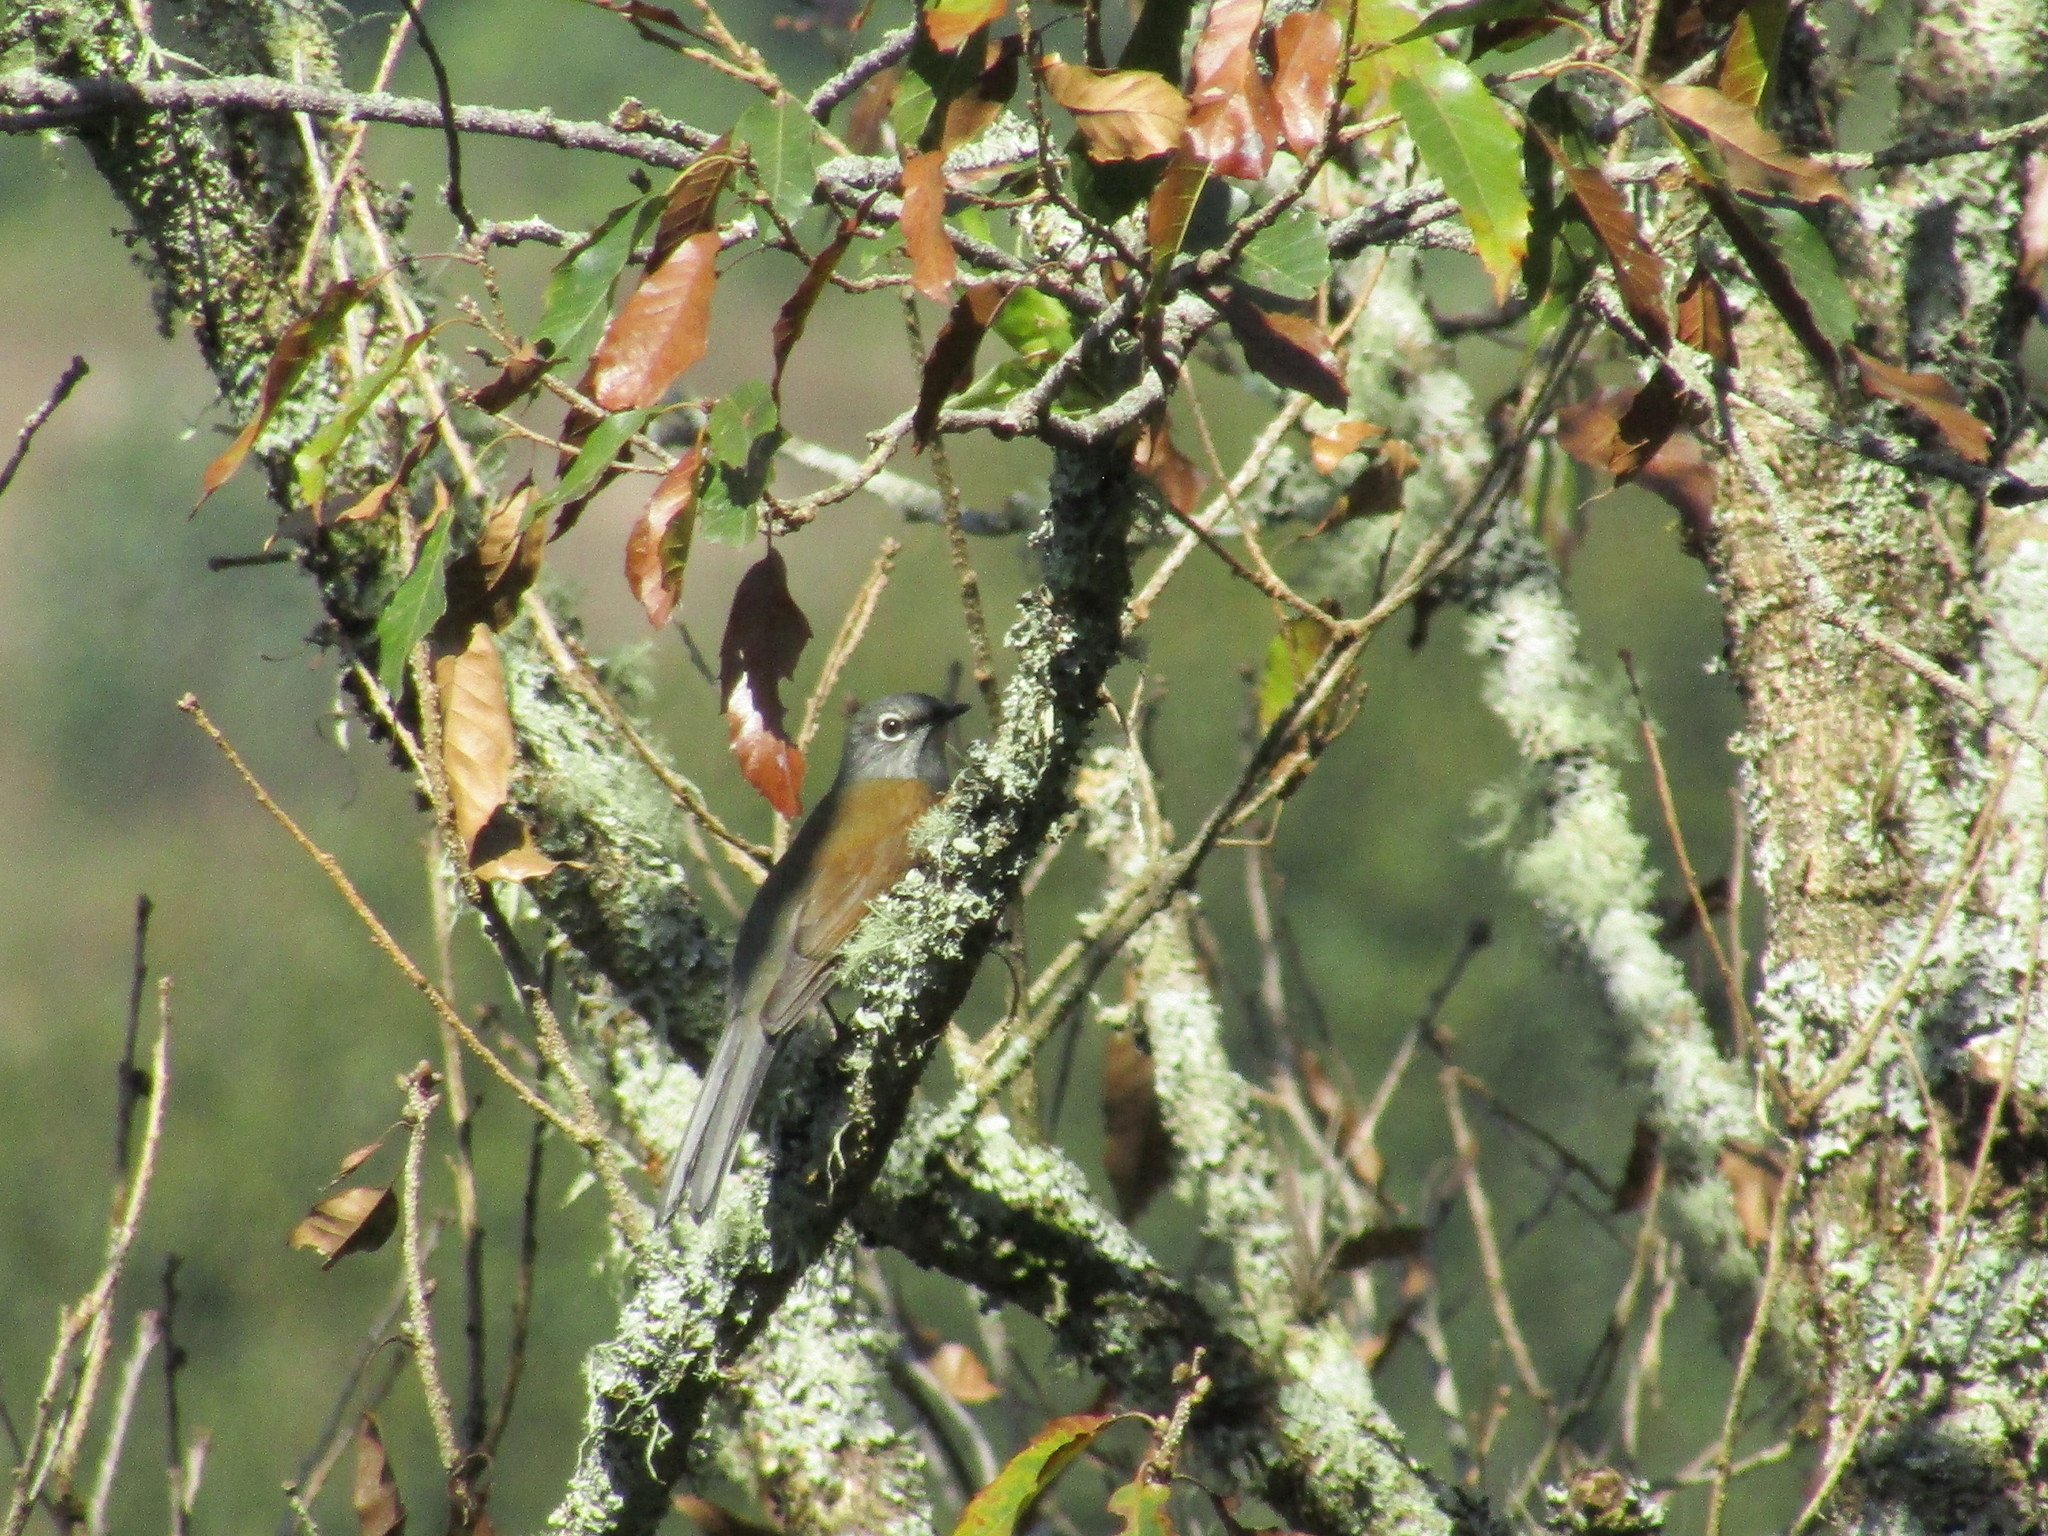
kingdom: Animalia
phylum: Chordata
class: Aves
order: Passeriformes
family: Turdidae
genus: Myadestes
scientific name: Myadestes occidentalis
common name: Brown-backed solitaire
